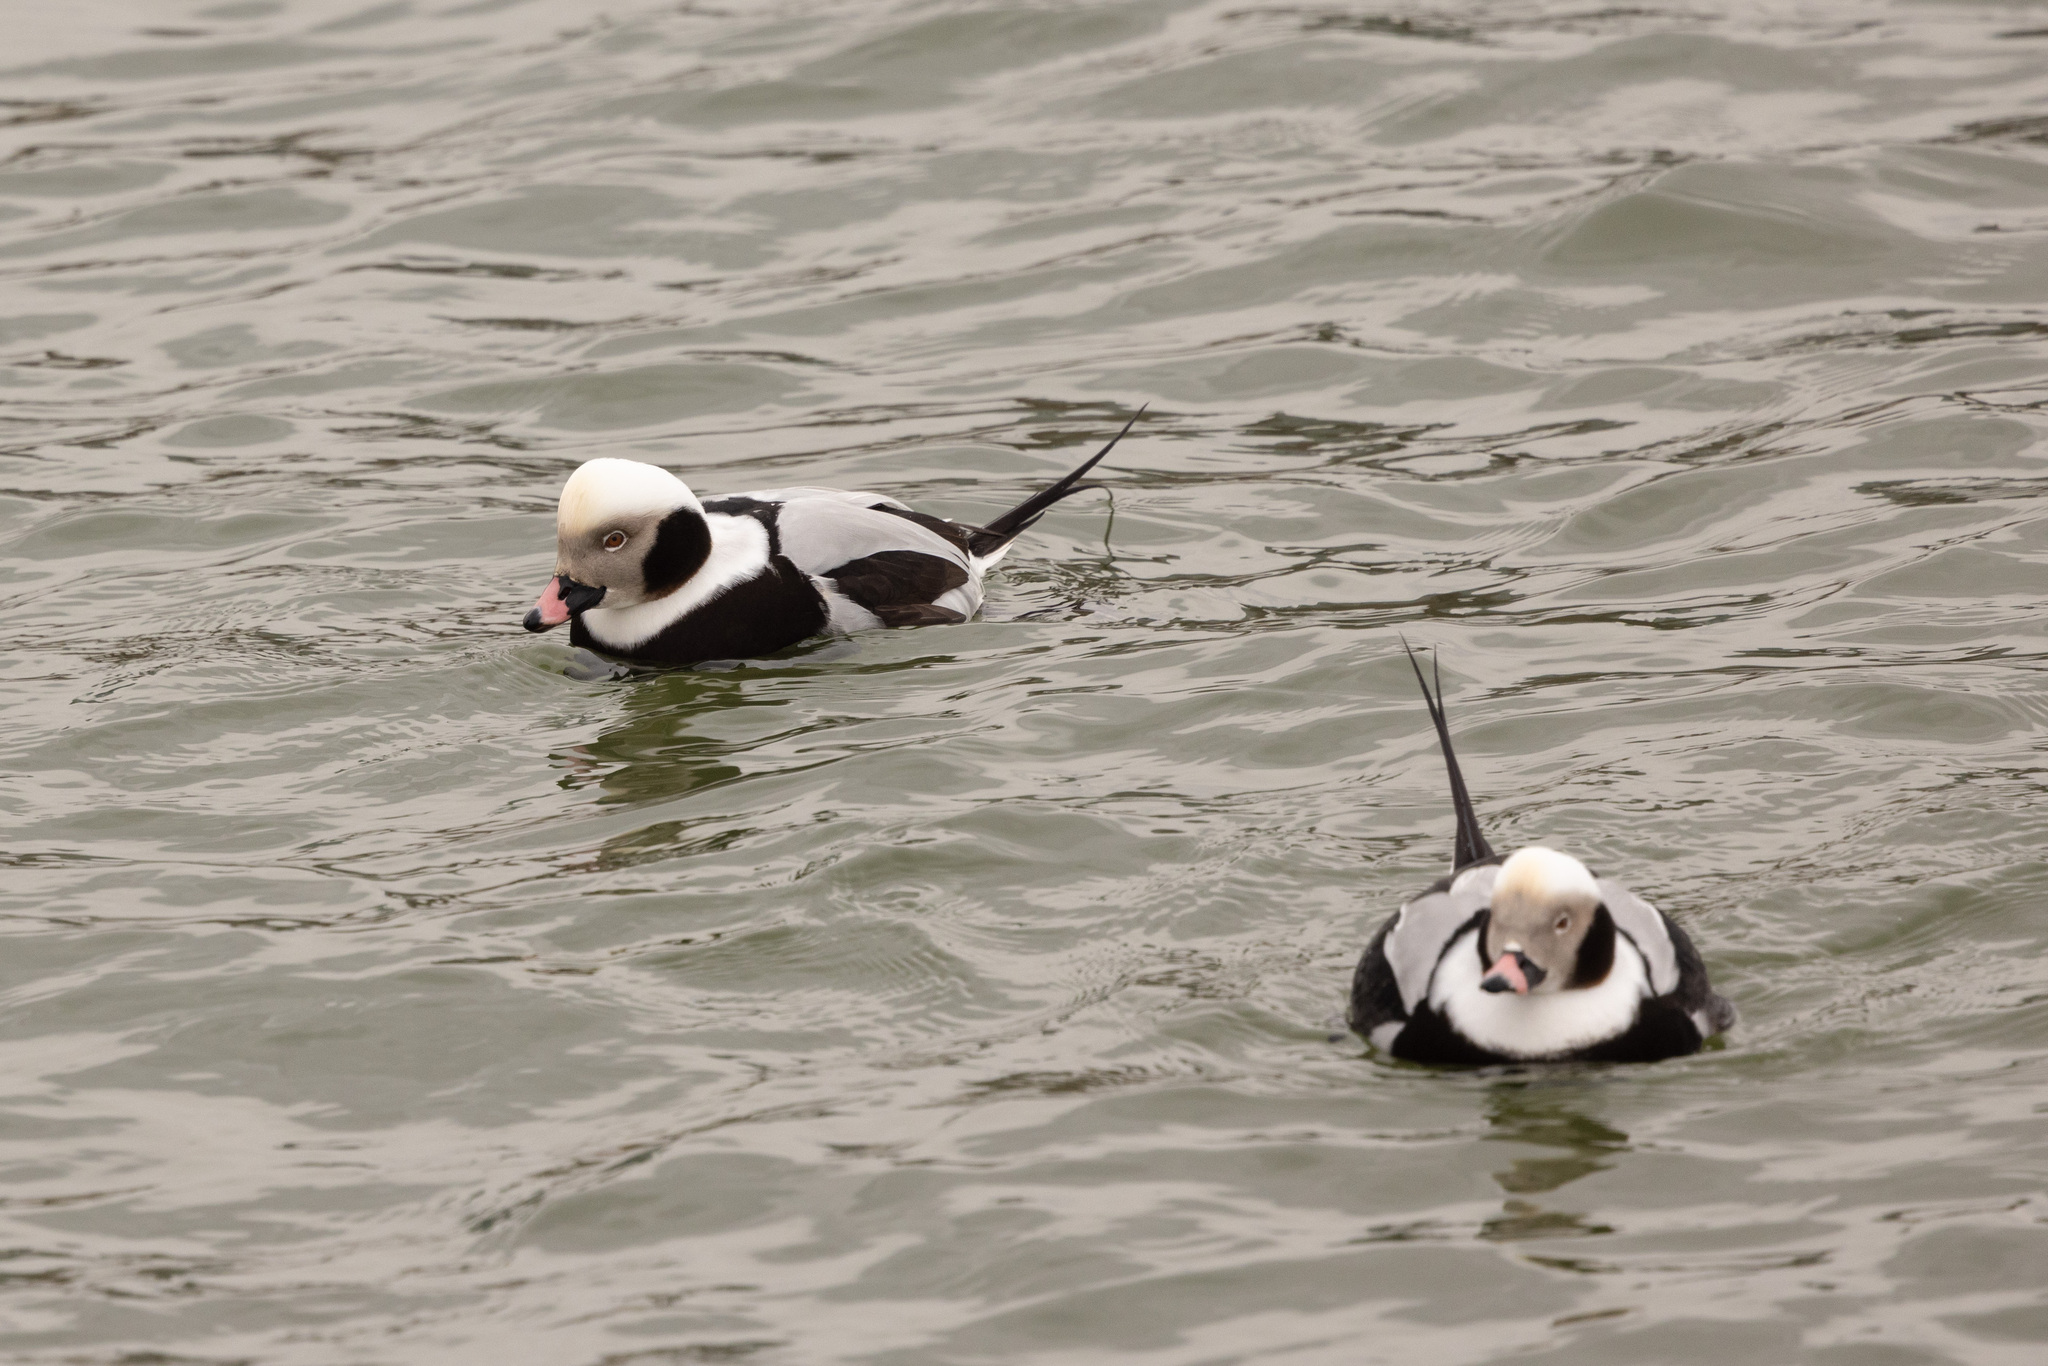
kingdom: Animalia
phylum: Chordata
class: Aves
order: Anseriformes
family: Anatidae
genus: Clangula
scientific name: Clangula hyemalis
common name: Long-tailed duck
